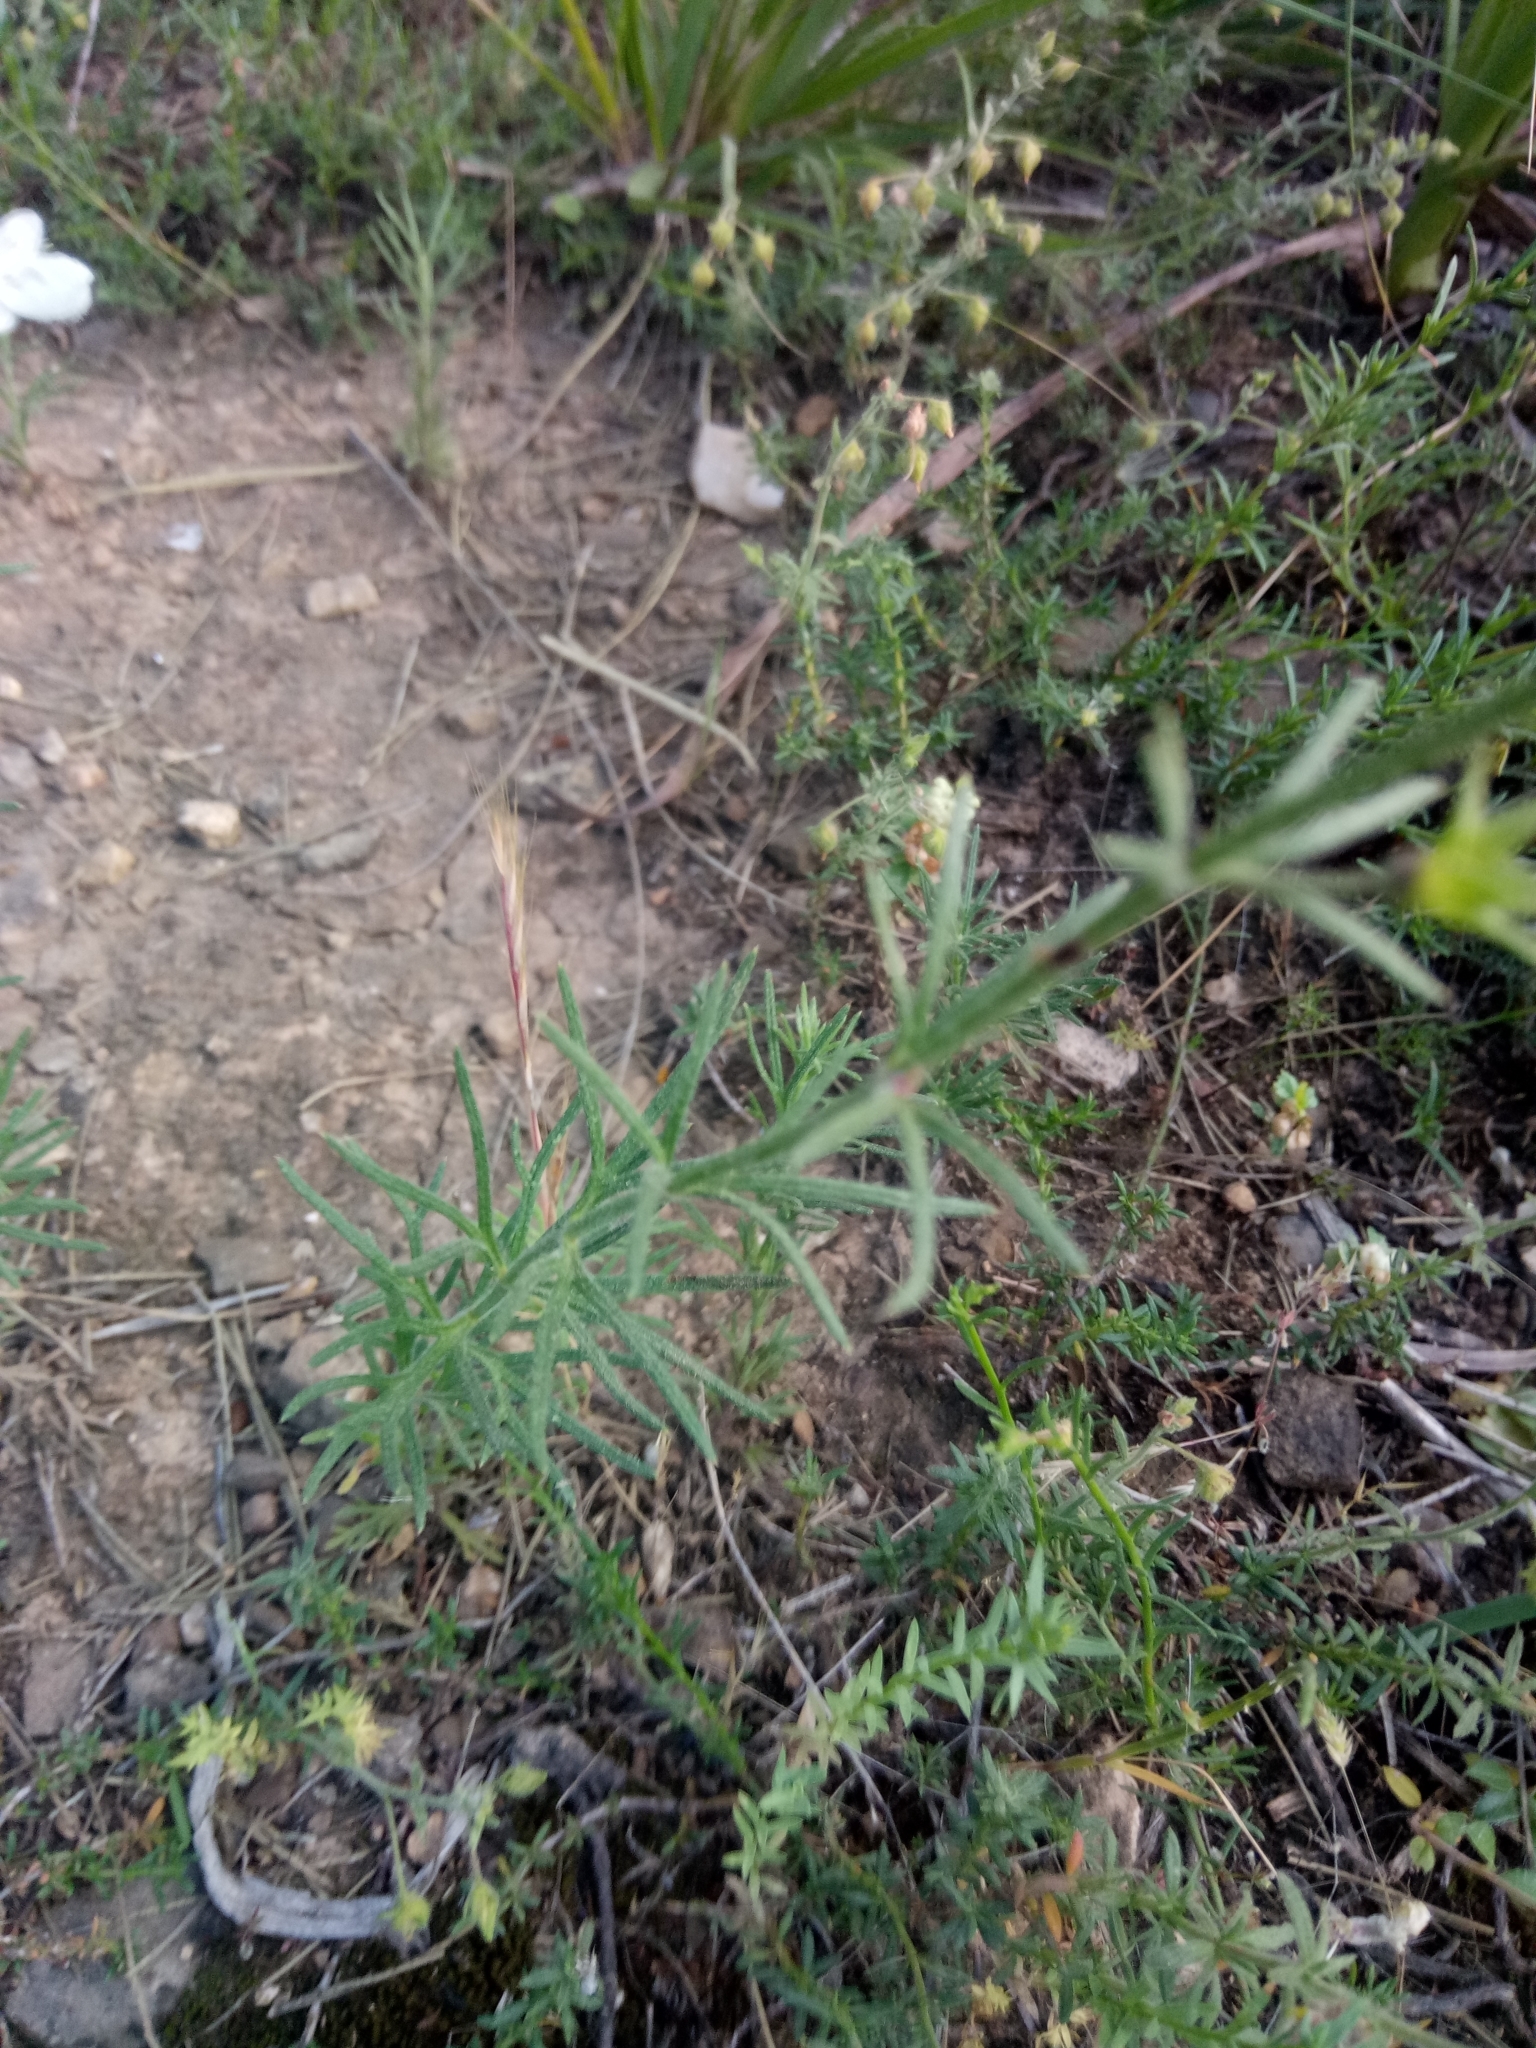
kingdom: Plantae
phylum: Tracheophyta
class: Magnoliopsida
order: Lamiales
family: Lamiaceae
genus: Teucrium
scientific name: Teucrium pseudochamaepitys
